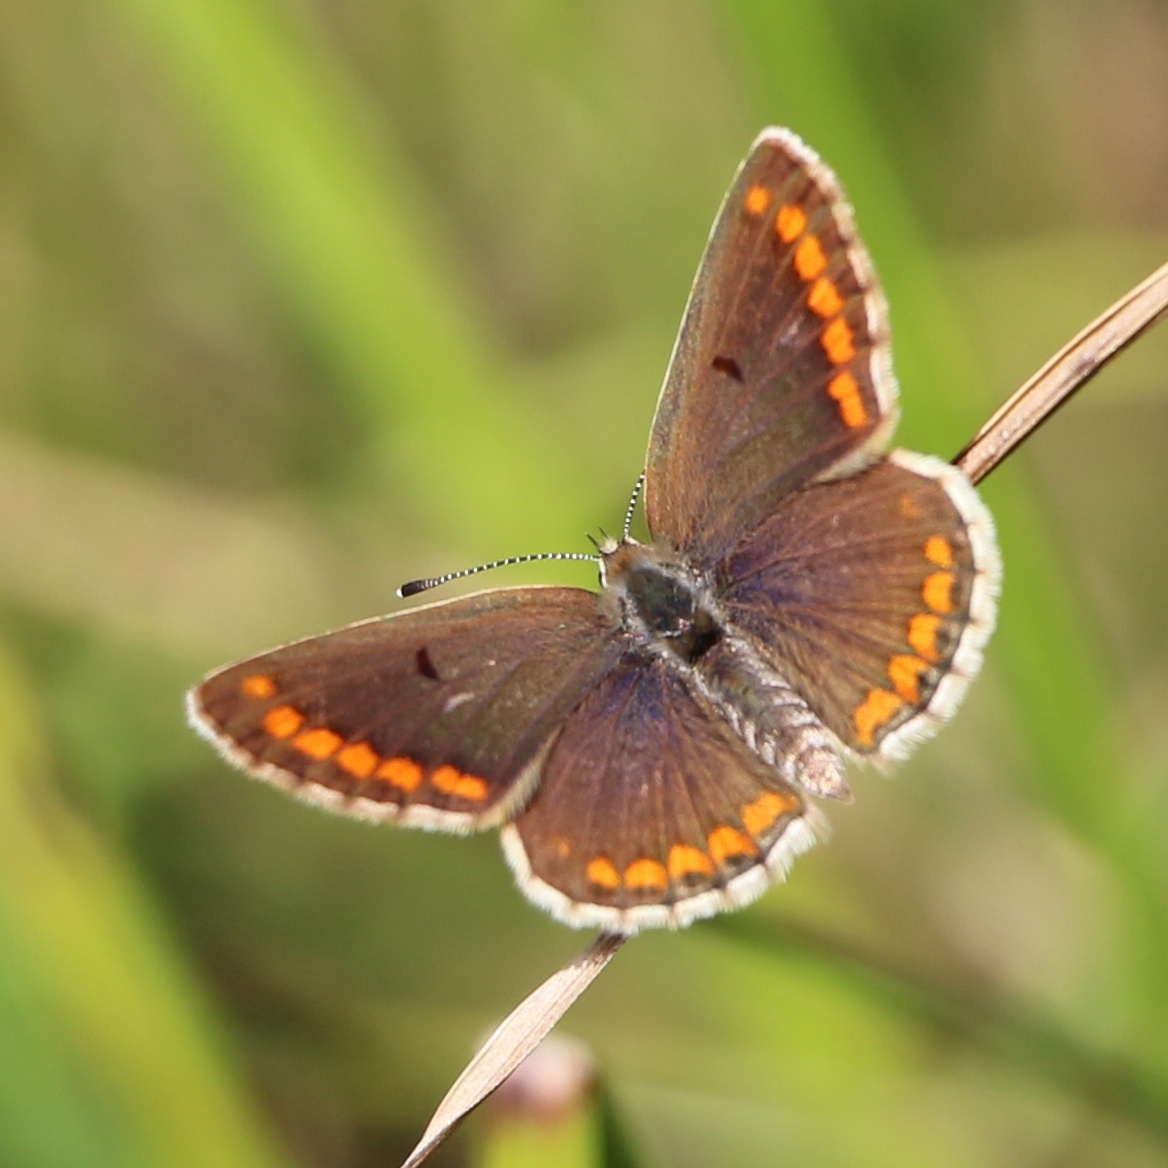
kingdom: Animalia
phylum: Arthropoda
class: Insecta
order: Lepidoptera
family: Lycaenidae
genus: Aricia
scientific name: Aricia agestis
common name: Brown argus
